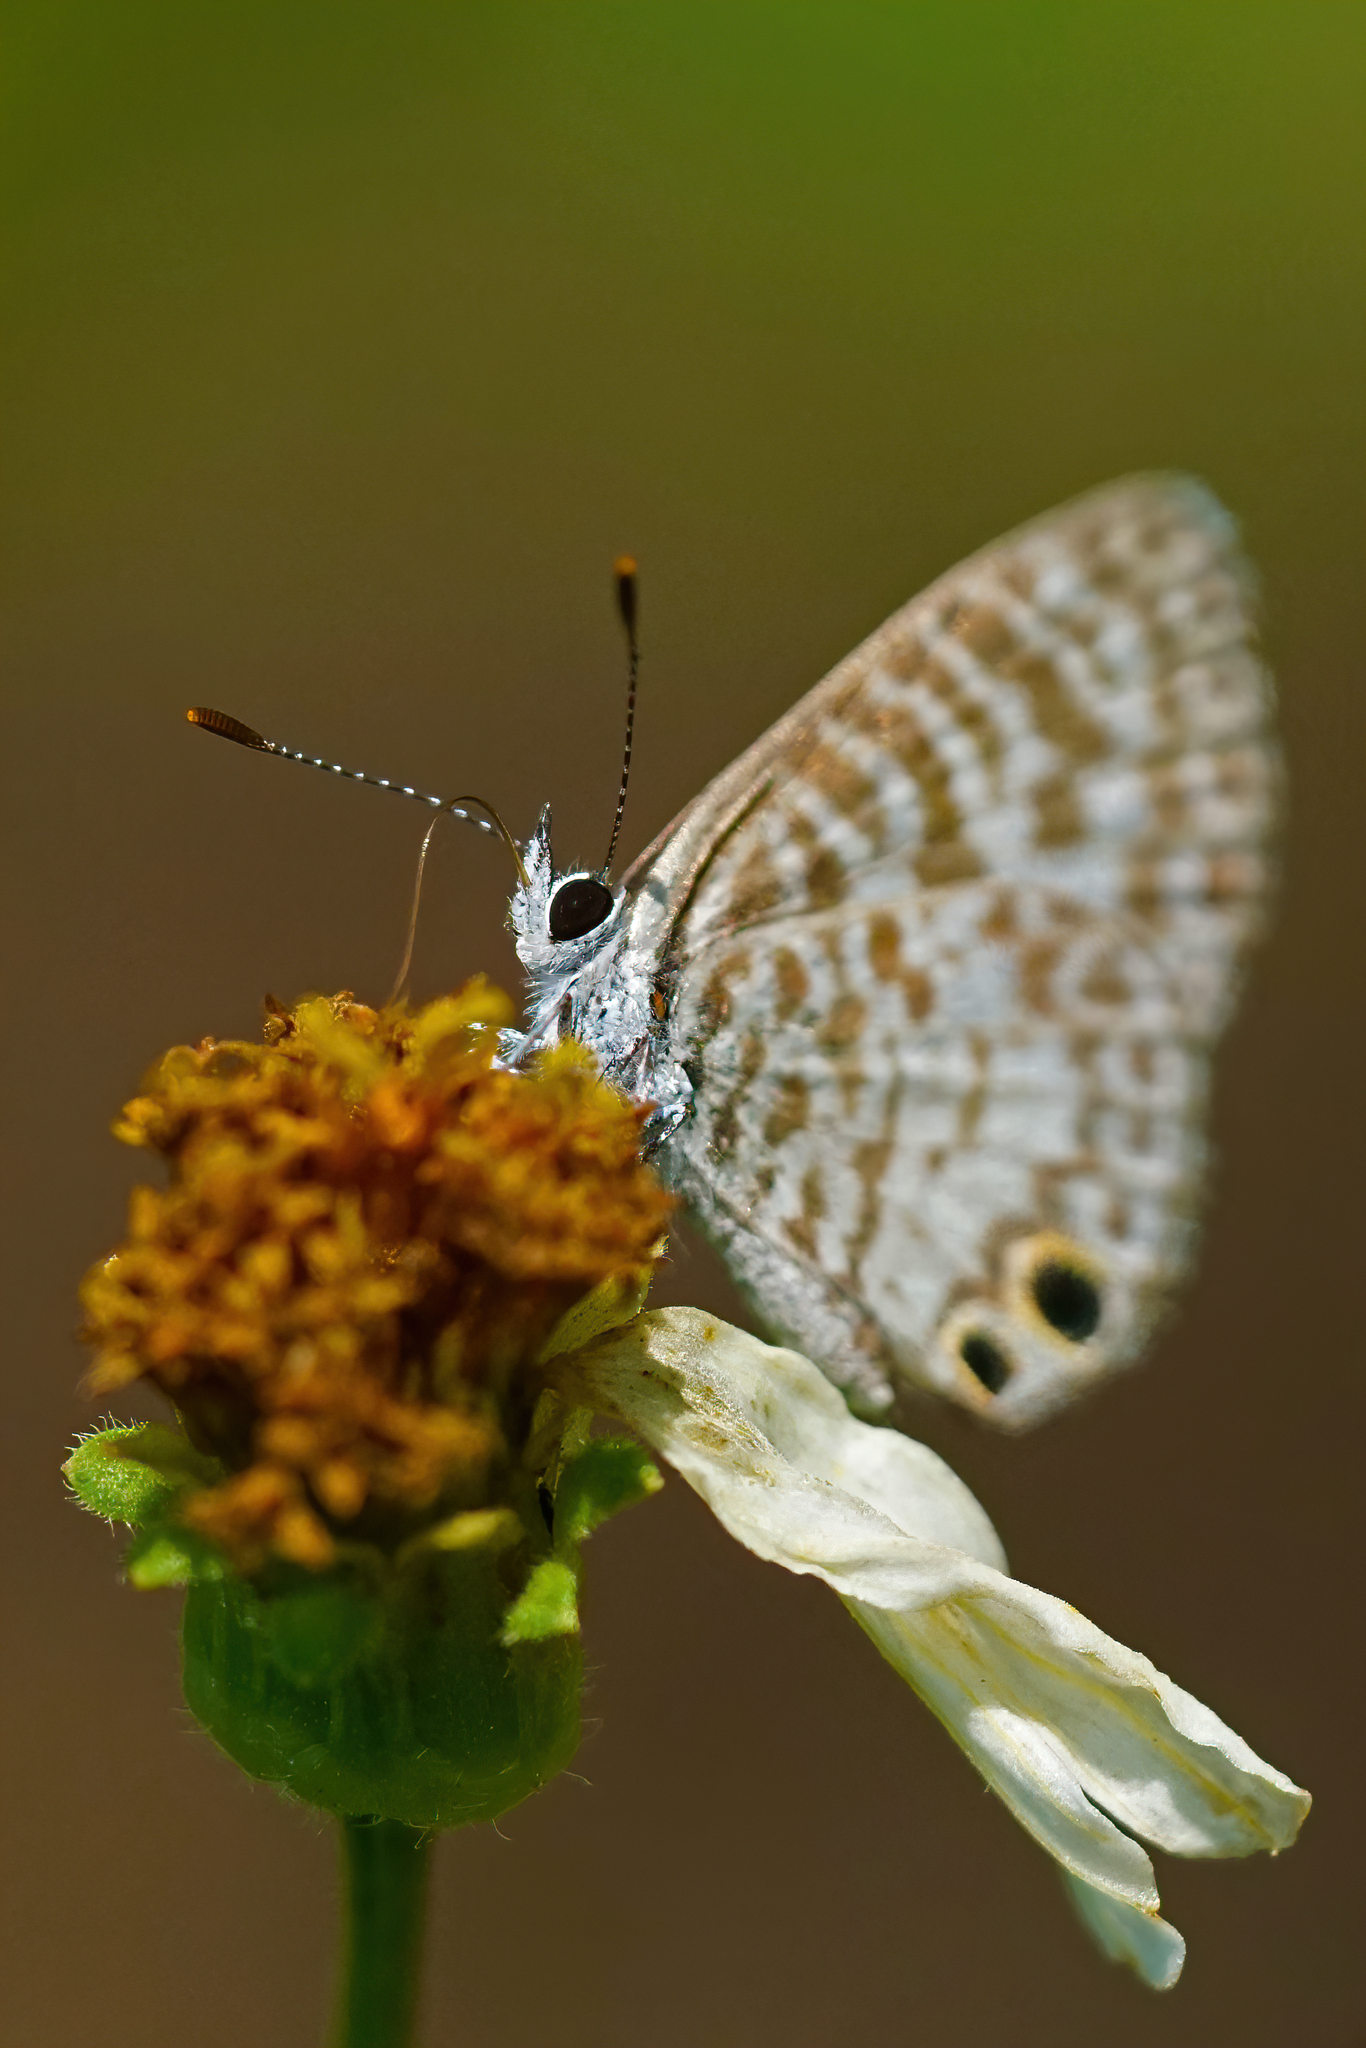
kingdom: Animalia
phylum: Arthropoda
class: Insecta
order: Lepidoptera
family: Lycaenidae
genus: Leptotes
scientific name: Leptotes cassius
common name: Cassius blue
